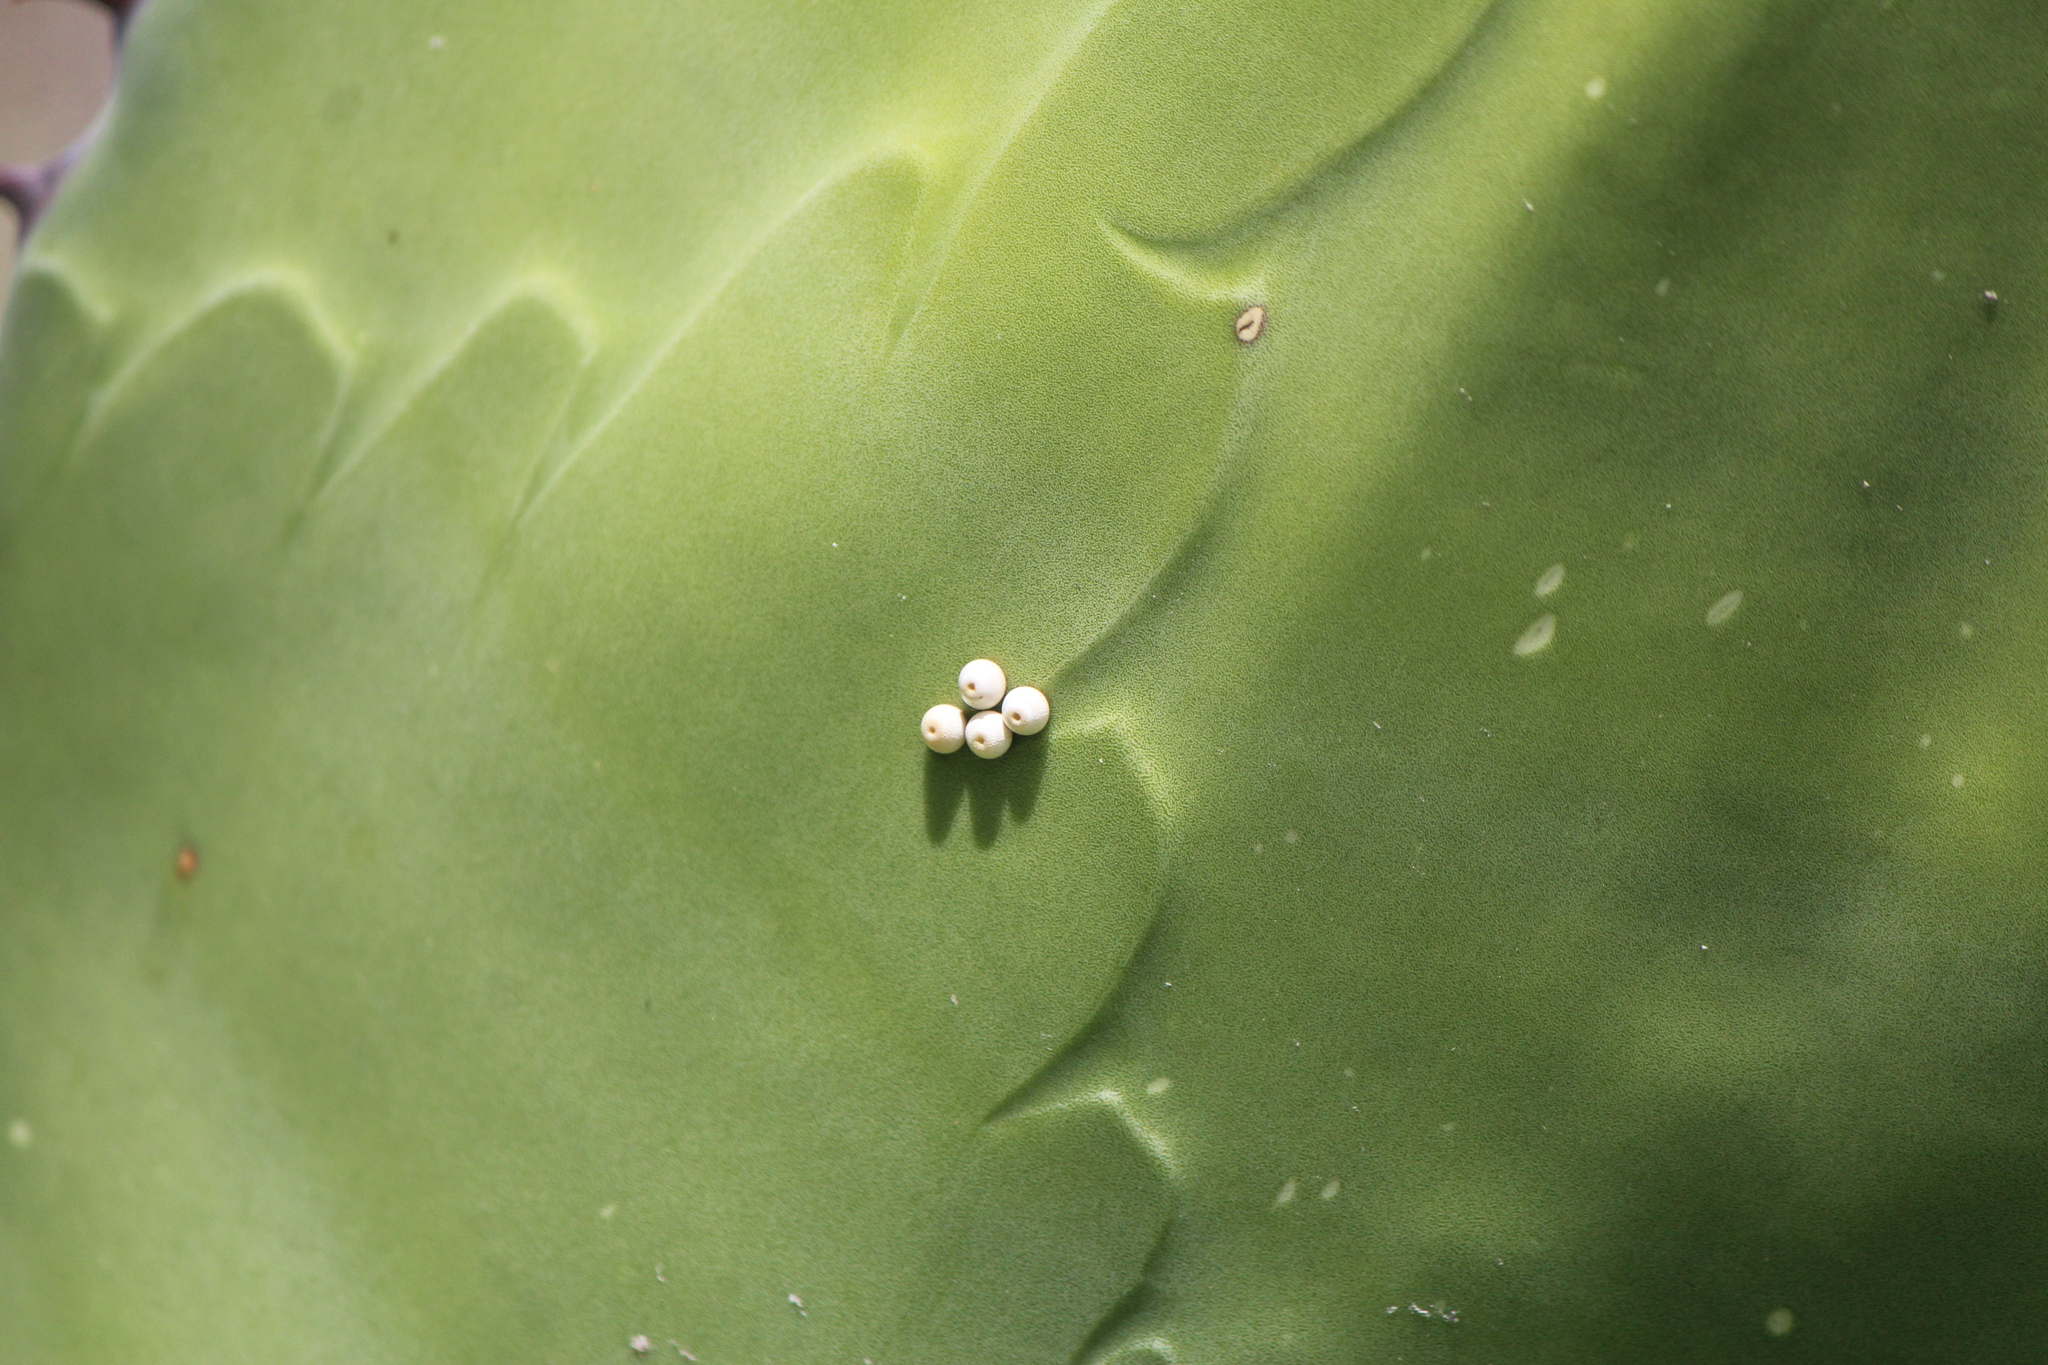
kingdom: Animalia
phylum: Arthropoda
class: Insecta
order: Lepidoptera
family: Hesperiidae
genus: Aegiale
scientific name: Aegiale hesperiaris
